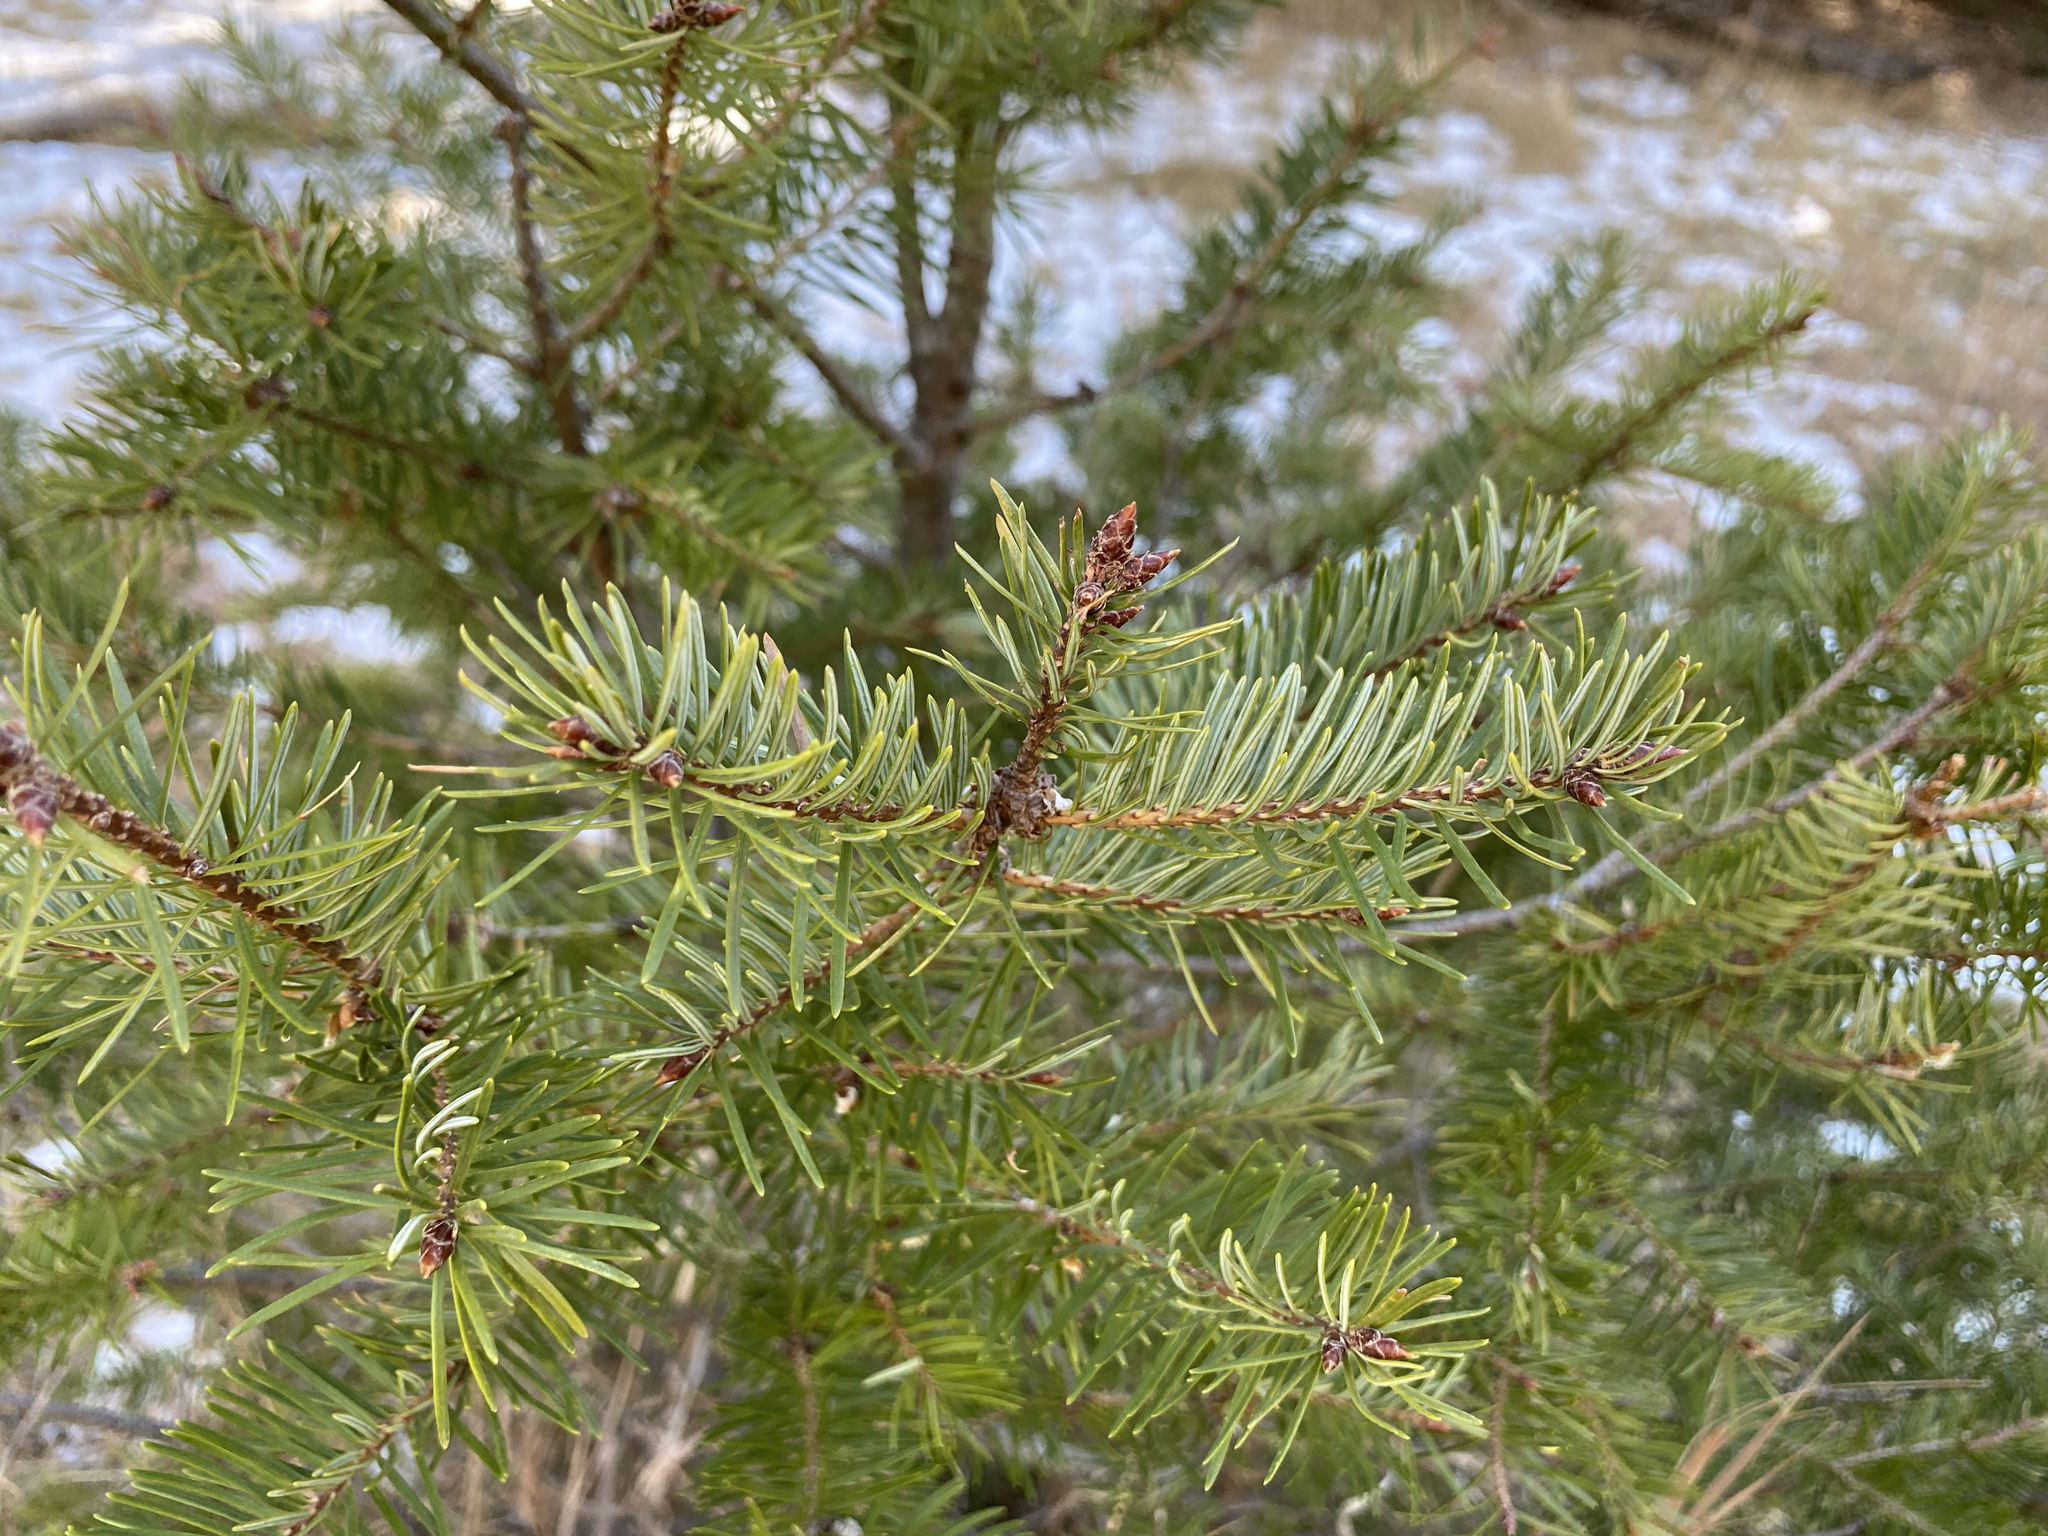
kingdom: Plantae
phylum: Tracheophyta
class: Pinopsida
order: Pinales
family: Pinaceae
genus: Pseudotsuga
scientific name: Pseudotsuga menziesii
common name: Douglas fir
